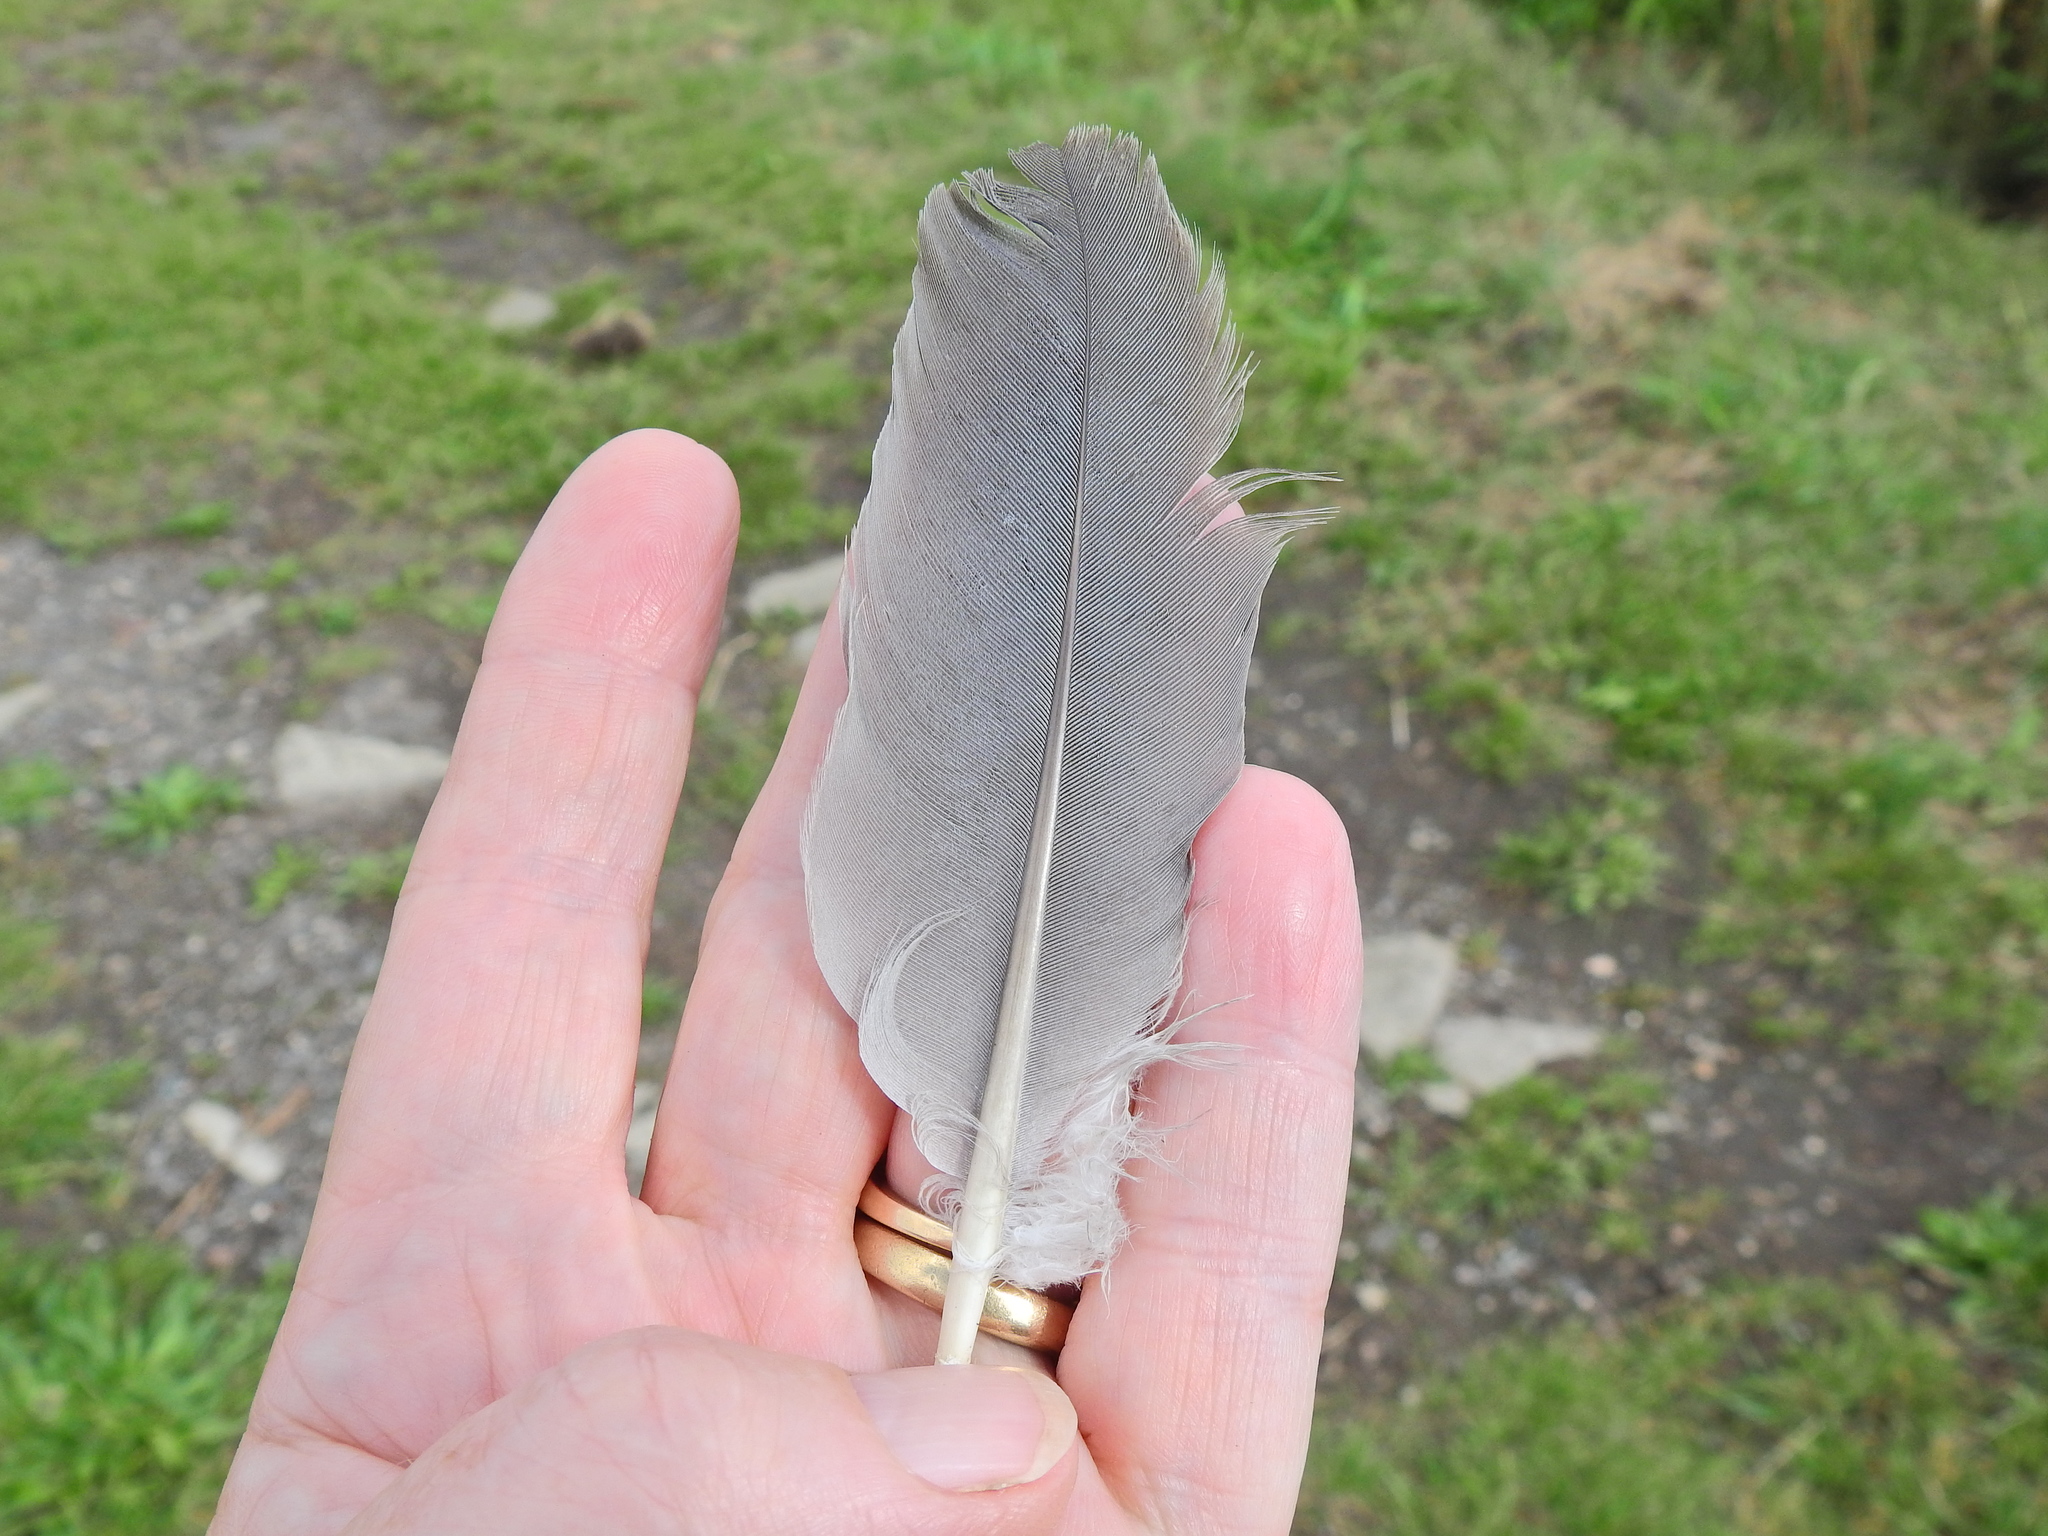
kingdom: Animalia
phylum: Chordata
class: Aves
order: Columbiformes
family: Columbidae
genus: Columba
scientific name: Columba palumbus
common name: Common wood pigeon
